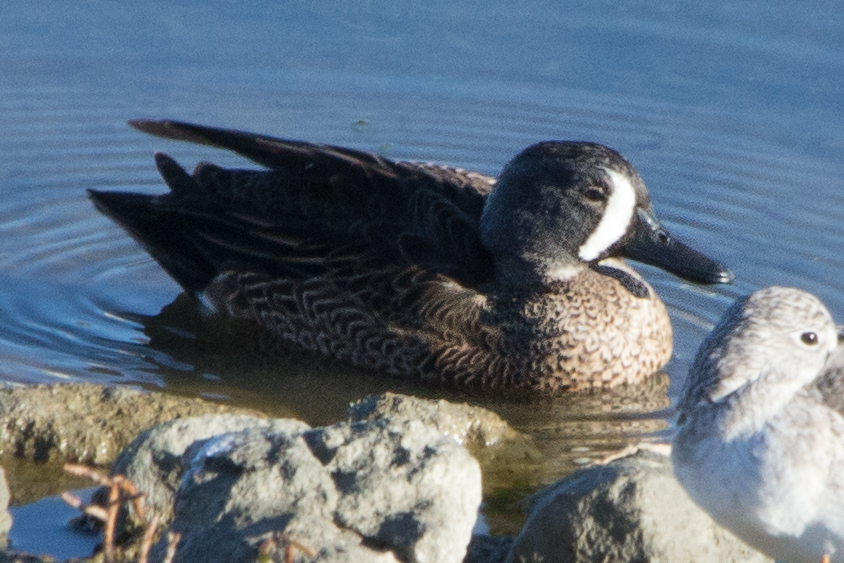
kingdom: Animalia
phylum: Chordata
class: Aves
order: Anseriformes
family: Anatidae
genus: Spatula
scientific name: Spatula discors
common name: Blue-winged teal
